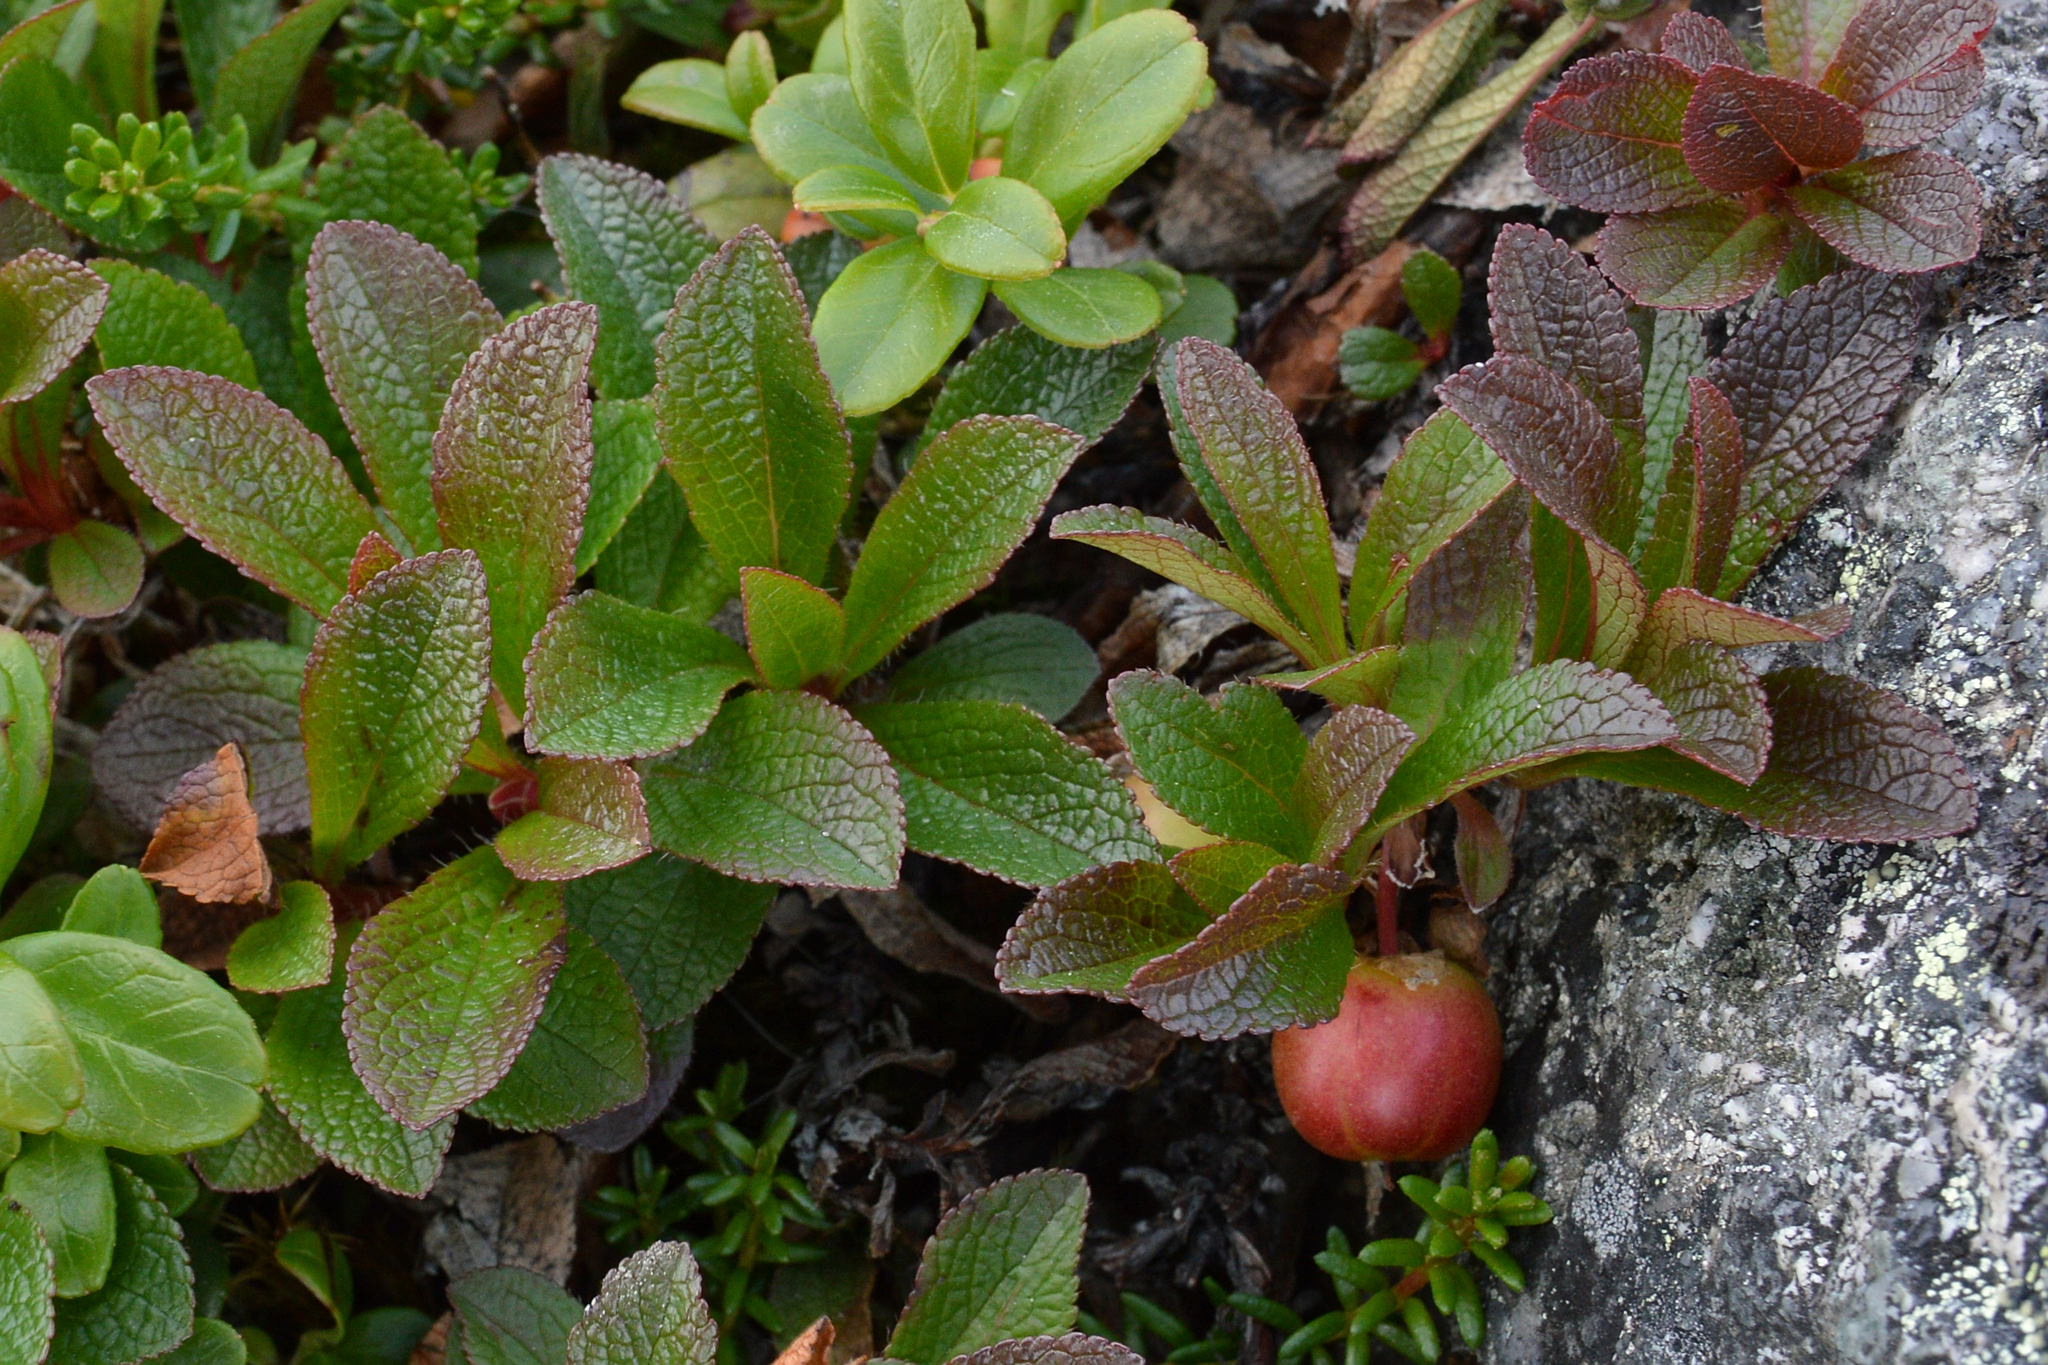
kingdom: Plantae
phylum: Tracheophyta
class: Magnoliopsida
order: Ericales
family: Ericaceae
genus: Arctostaphylos
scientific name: Arctostaphylos alpinus
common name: Alpine bearberry
